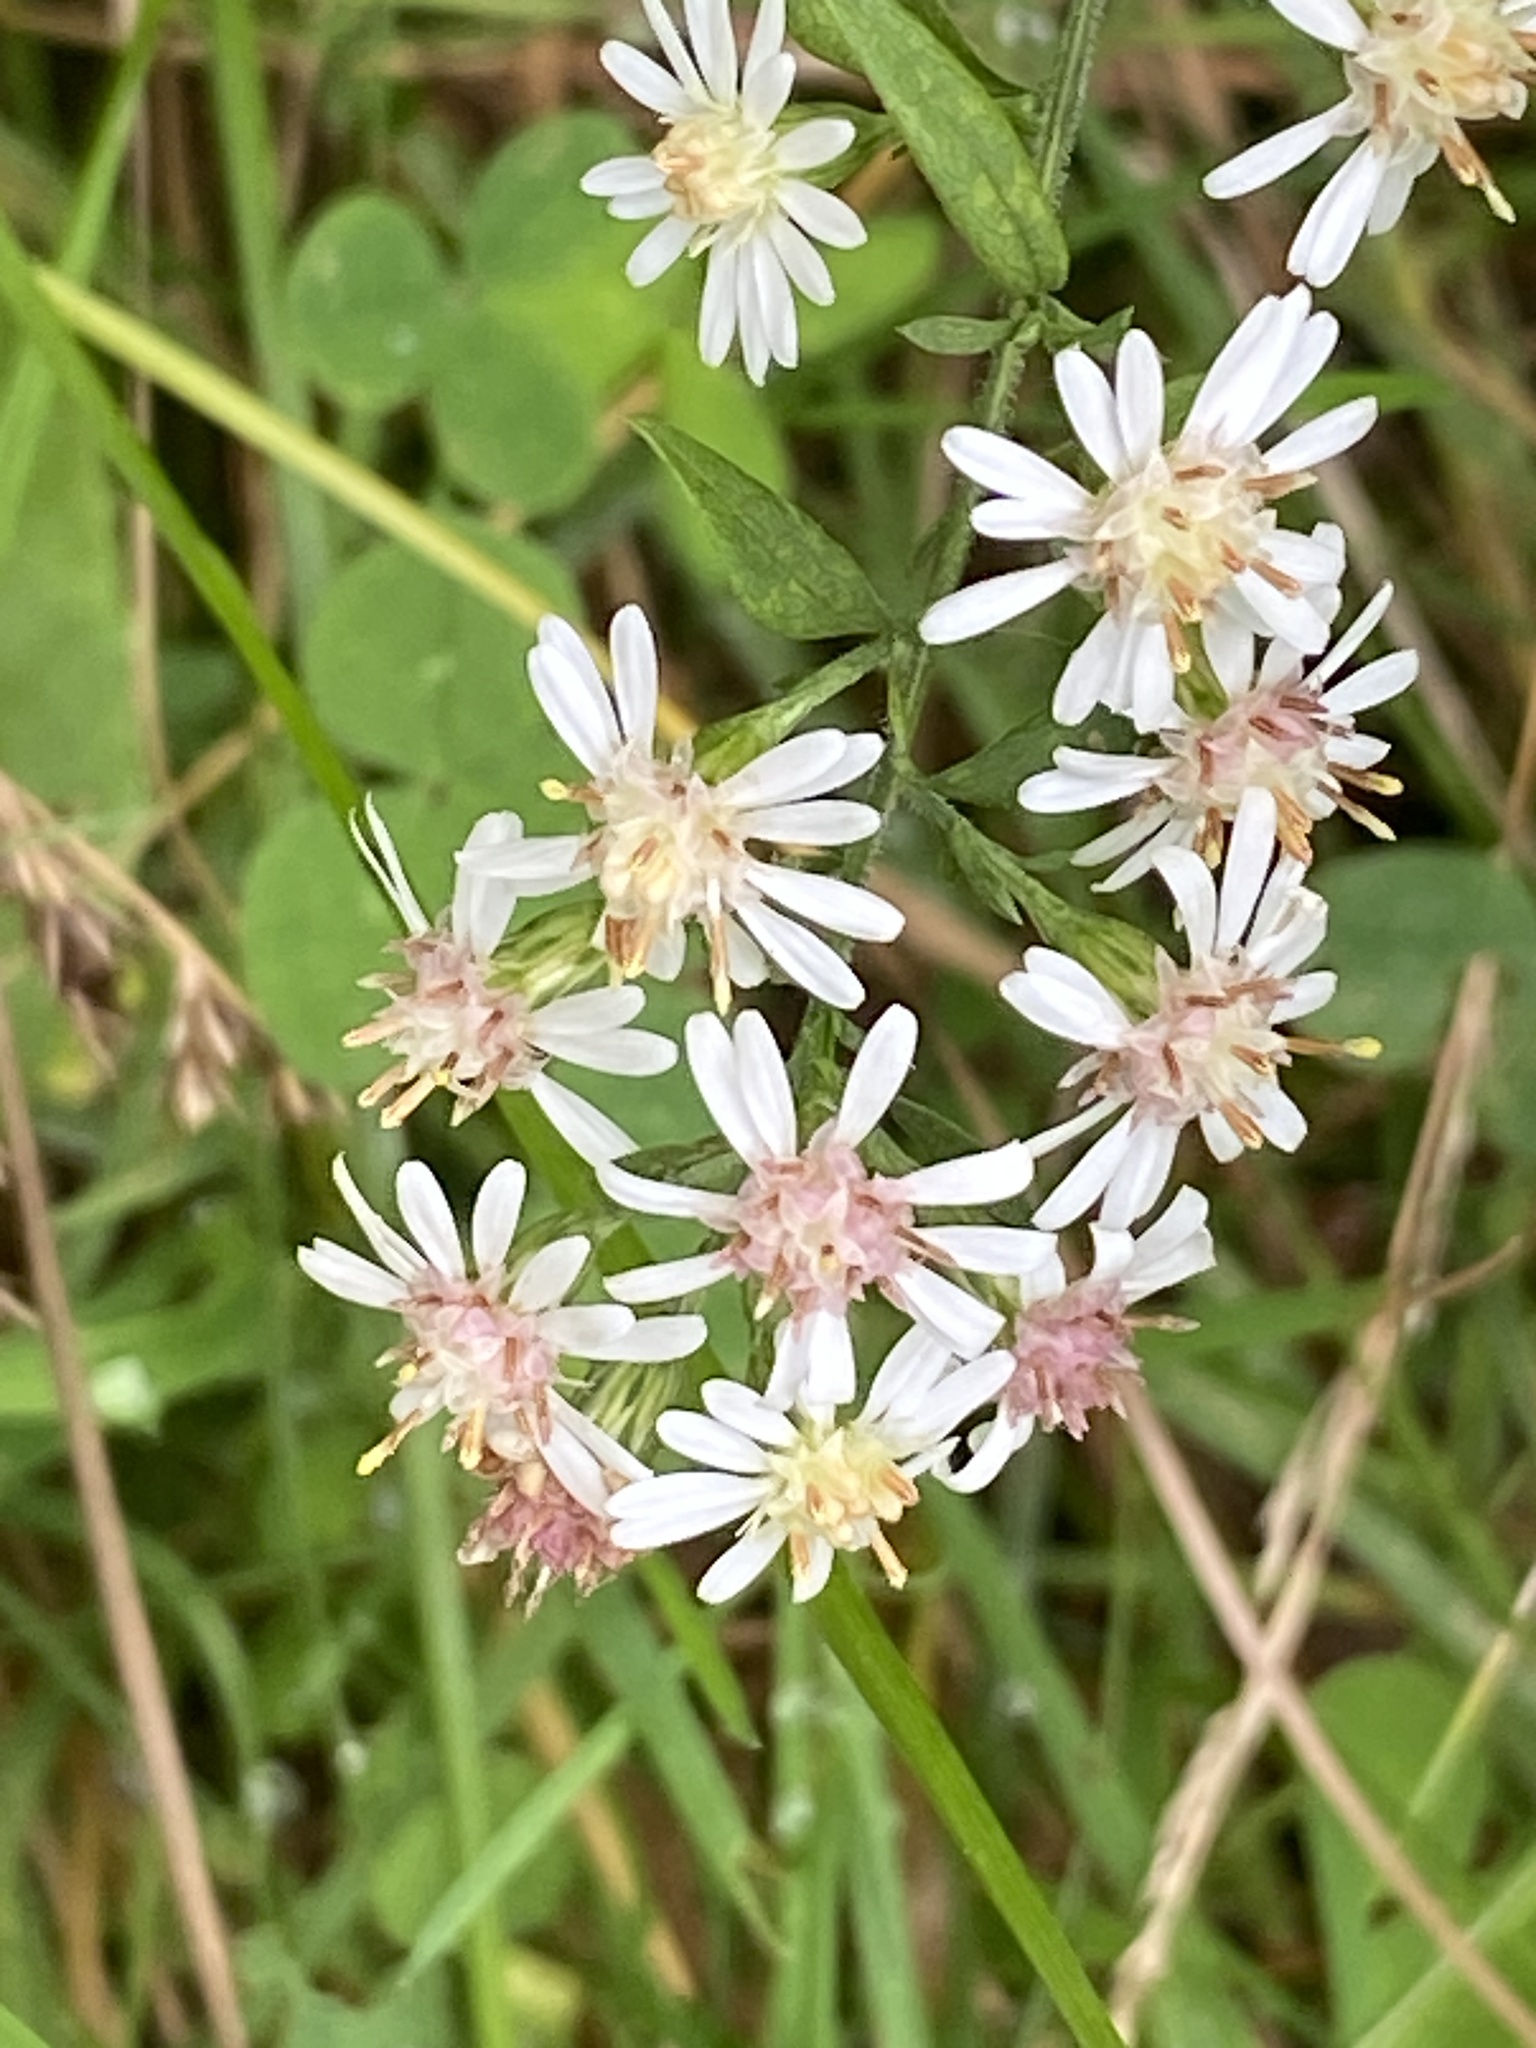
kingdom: Plantae
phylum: Tracheophyta
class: Magnoliopsida
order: Asterales
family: Asteraceae
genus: Symphyotrichum
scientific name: Symphyotrichum lateriflorum
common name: Calico aster
